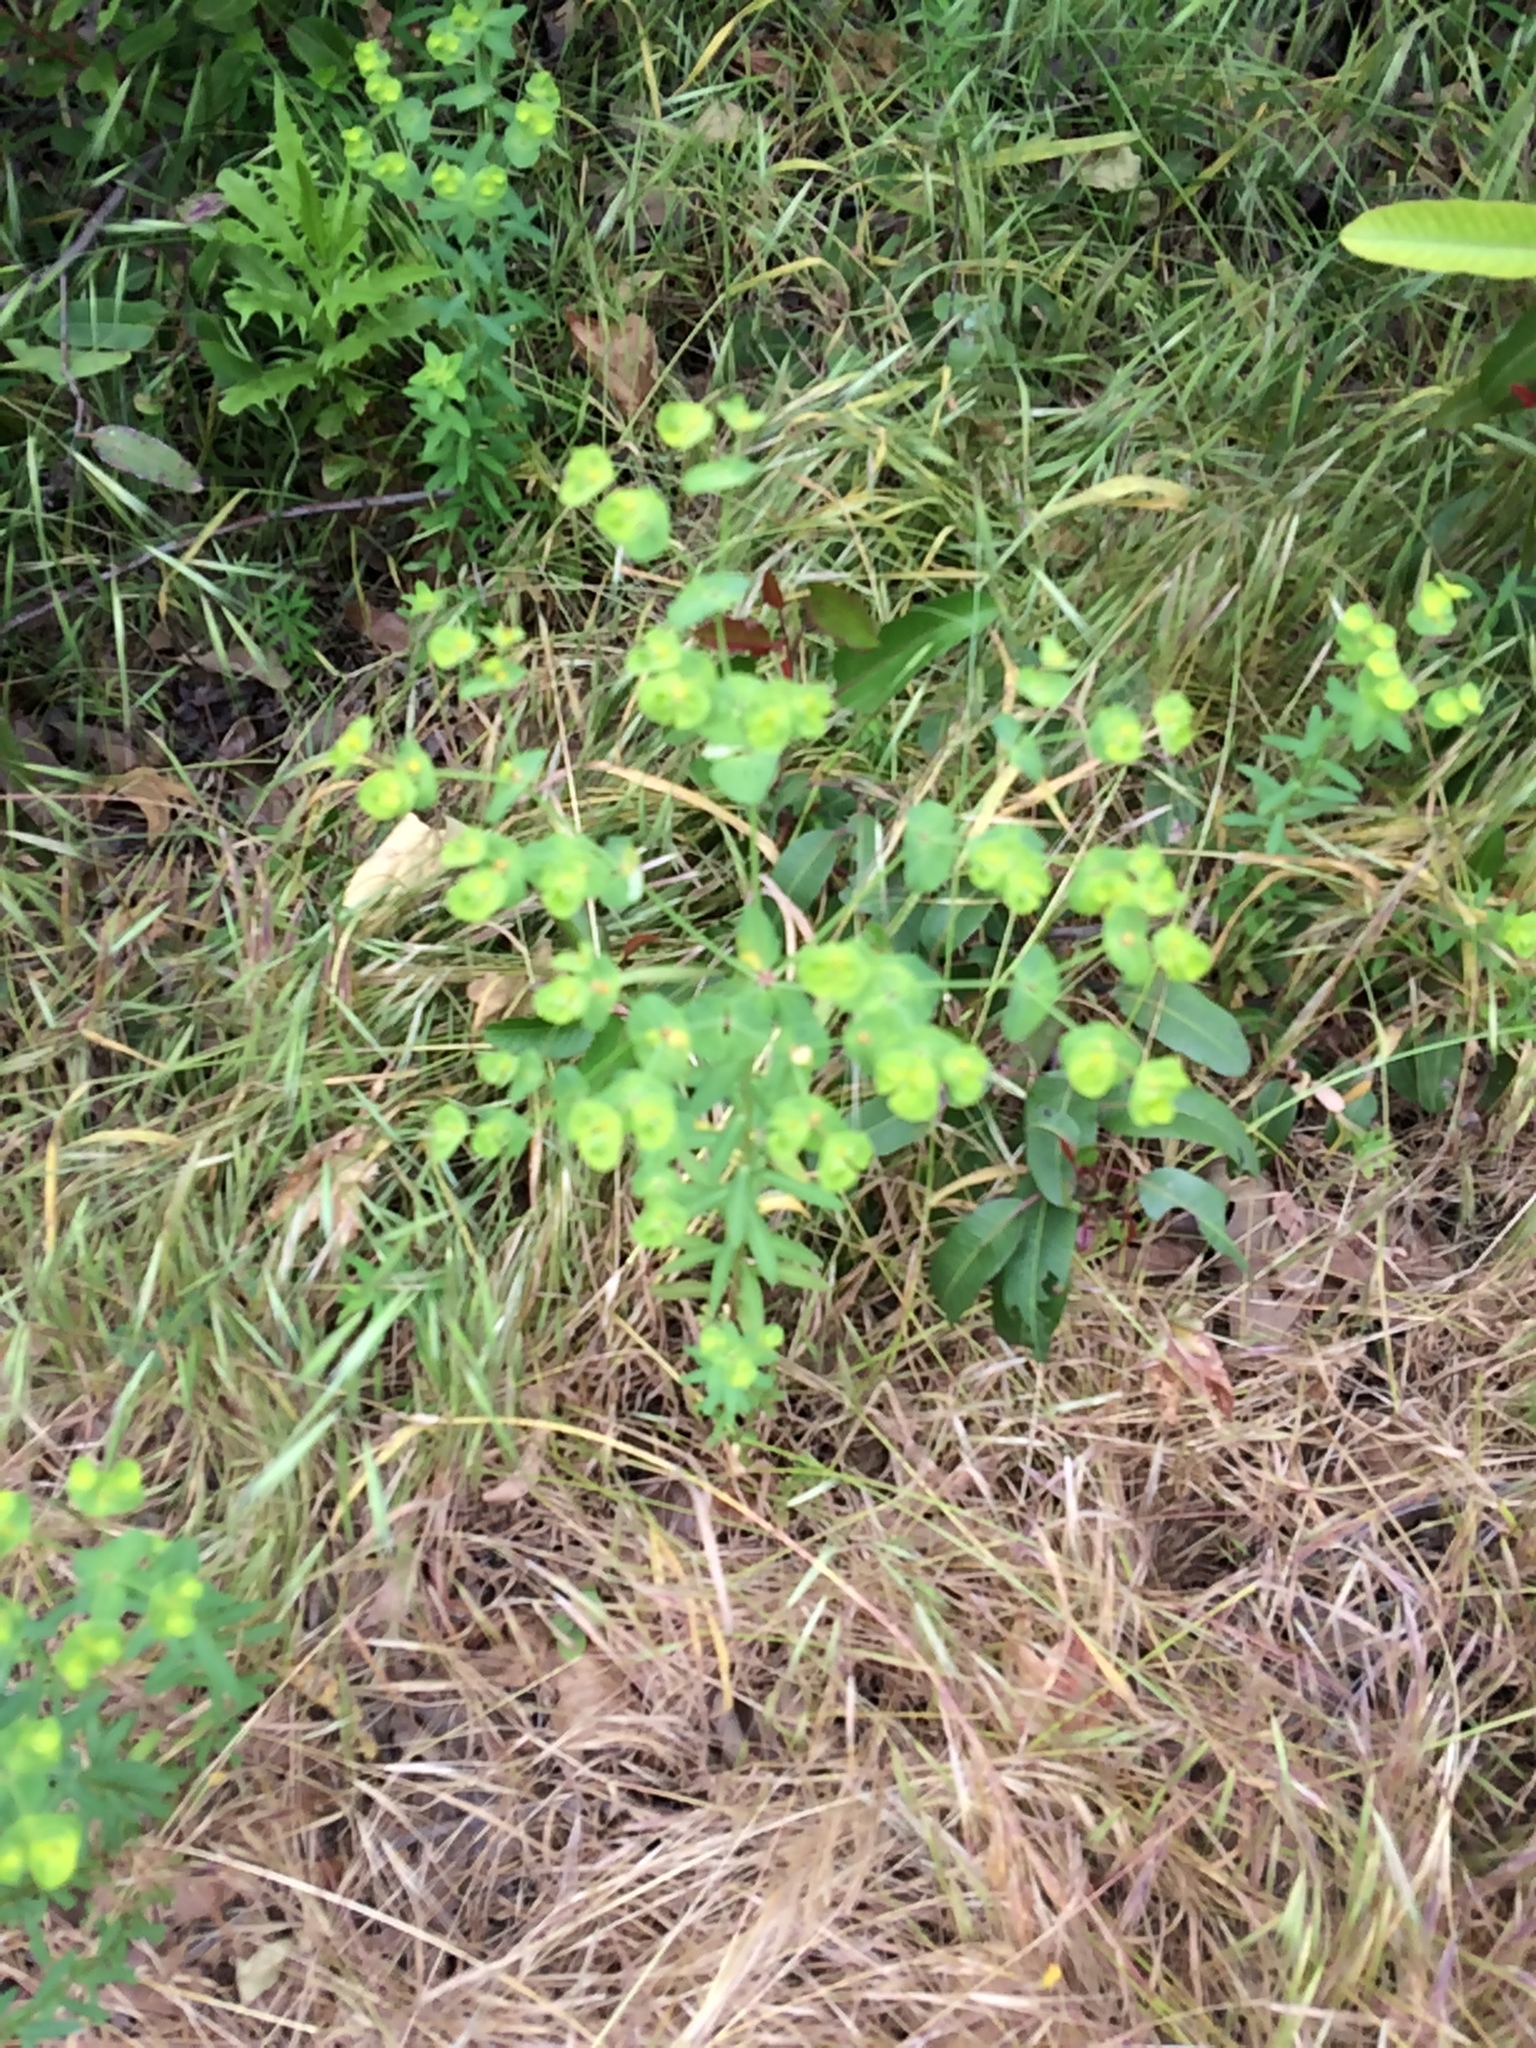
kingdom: Plantae
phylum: Tracheophyta
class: Magnoliopsida
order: Malpighiales
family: Euphorbiaceae
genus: Euphorbia
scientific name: Euphorbia terracina
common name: Geraldton carnation weed
